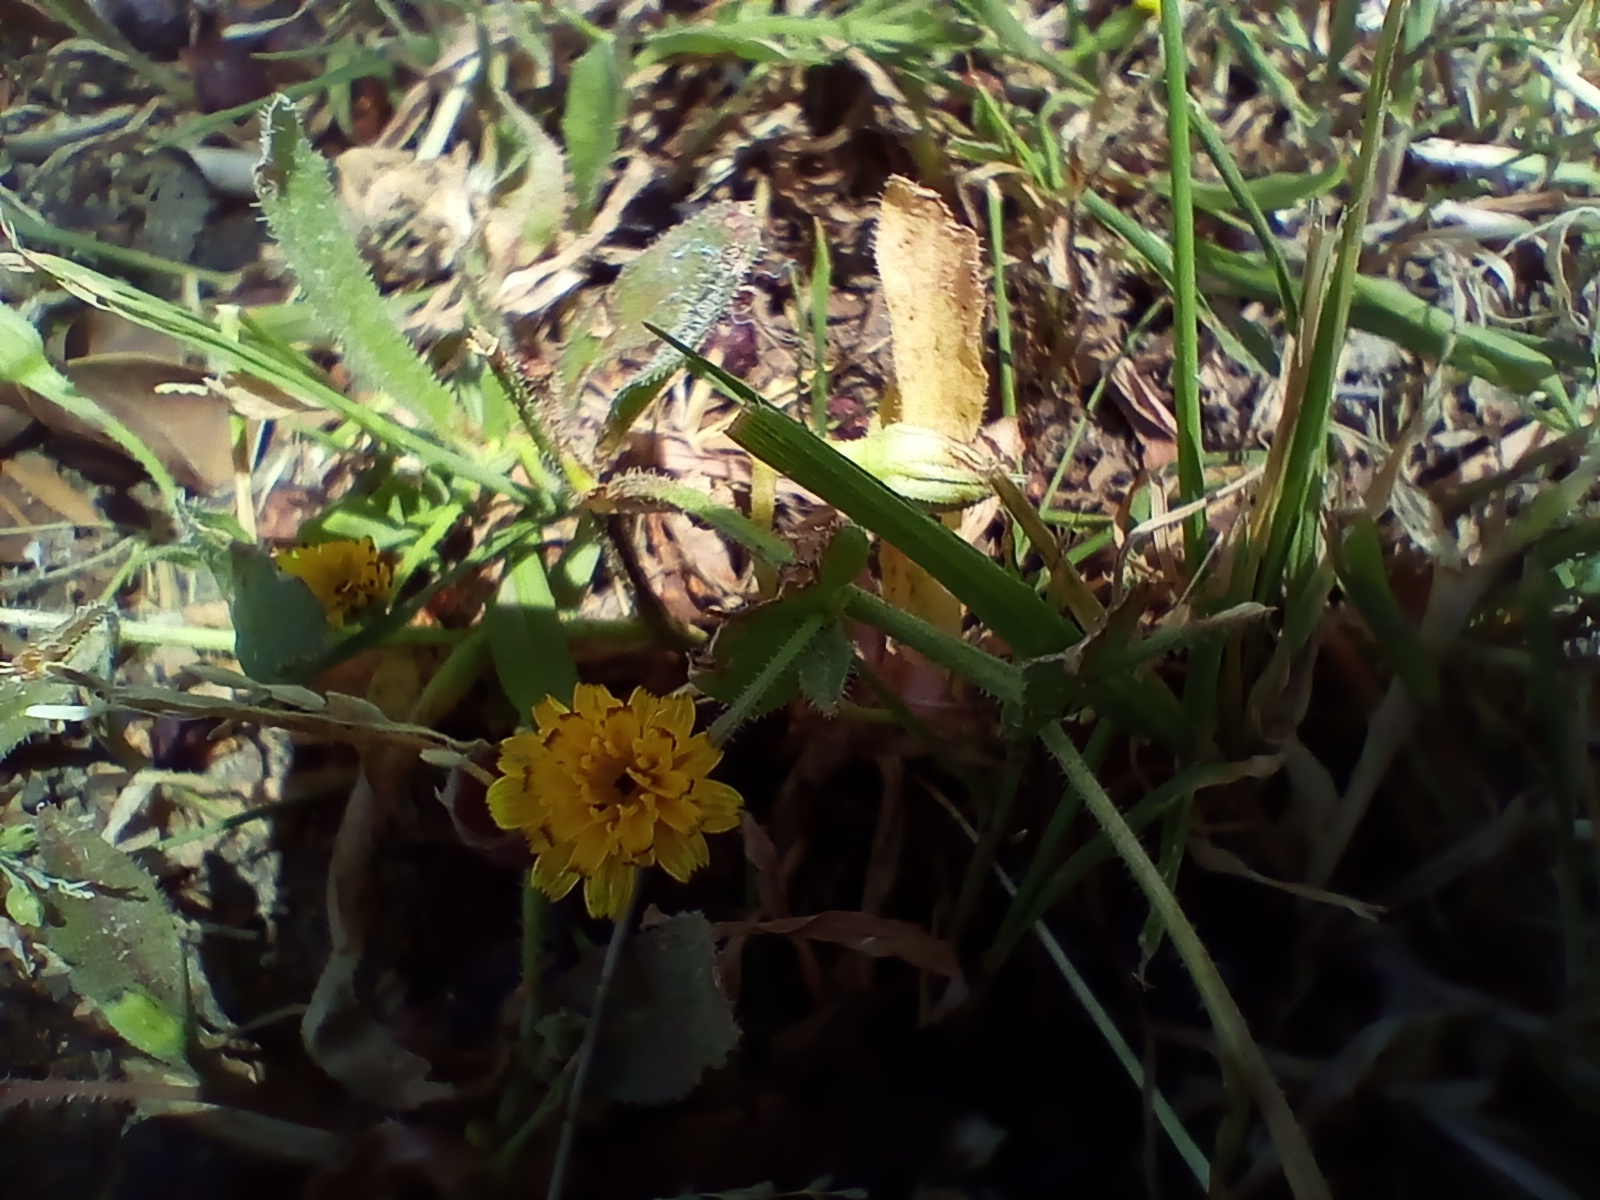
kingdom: Plantae
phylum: Tracheophyta
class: Magnoliopsida
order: Asterales
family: Asteraceae
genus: Hedypnois
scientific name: Hedypnois rhagadioloides
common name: Cretan weed
